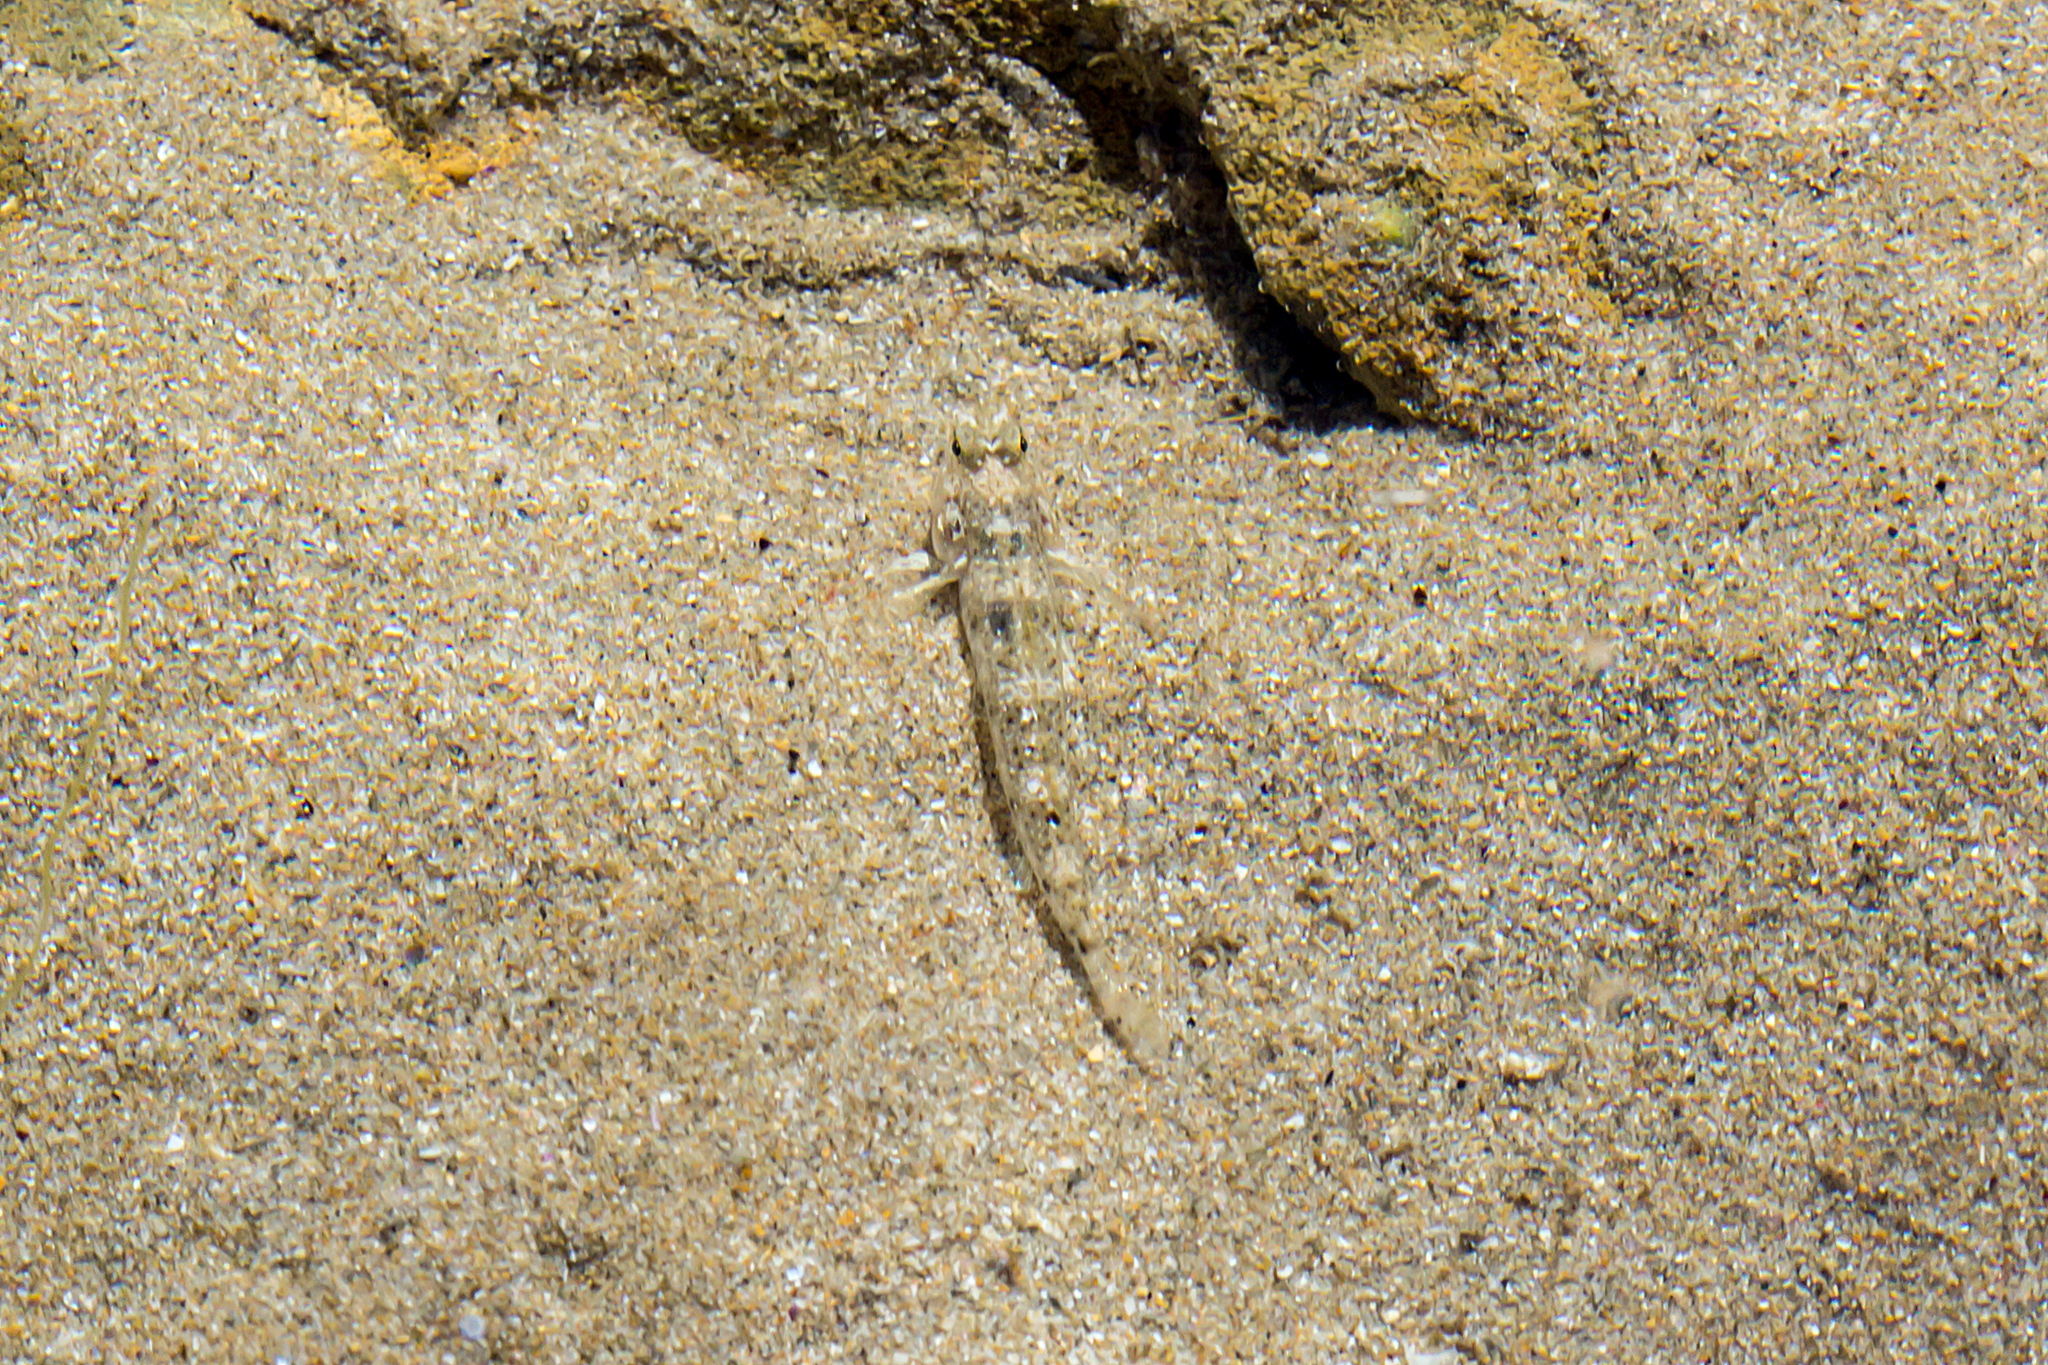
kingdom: Animalia
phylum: Chordata
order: Perciformes
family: Gobiidae
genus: Favonigobius
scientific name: Favonigobius lateralis
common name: Long-finned goby
